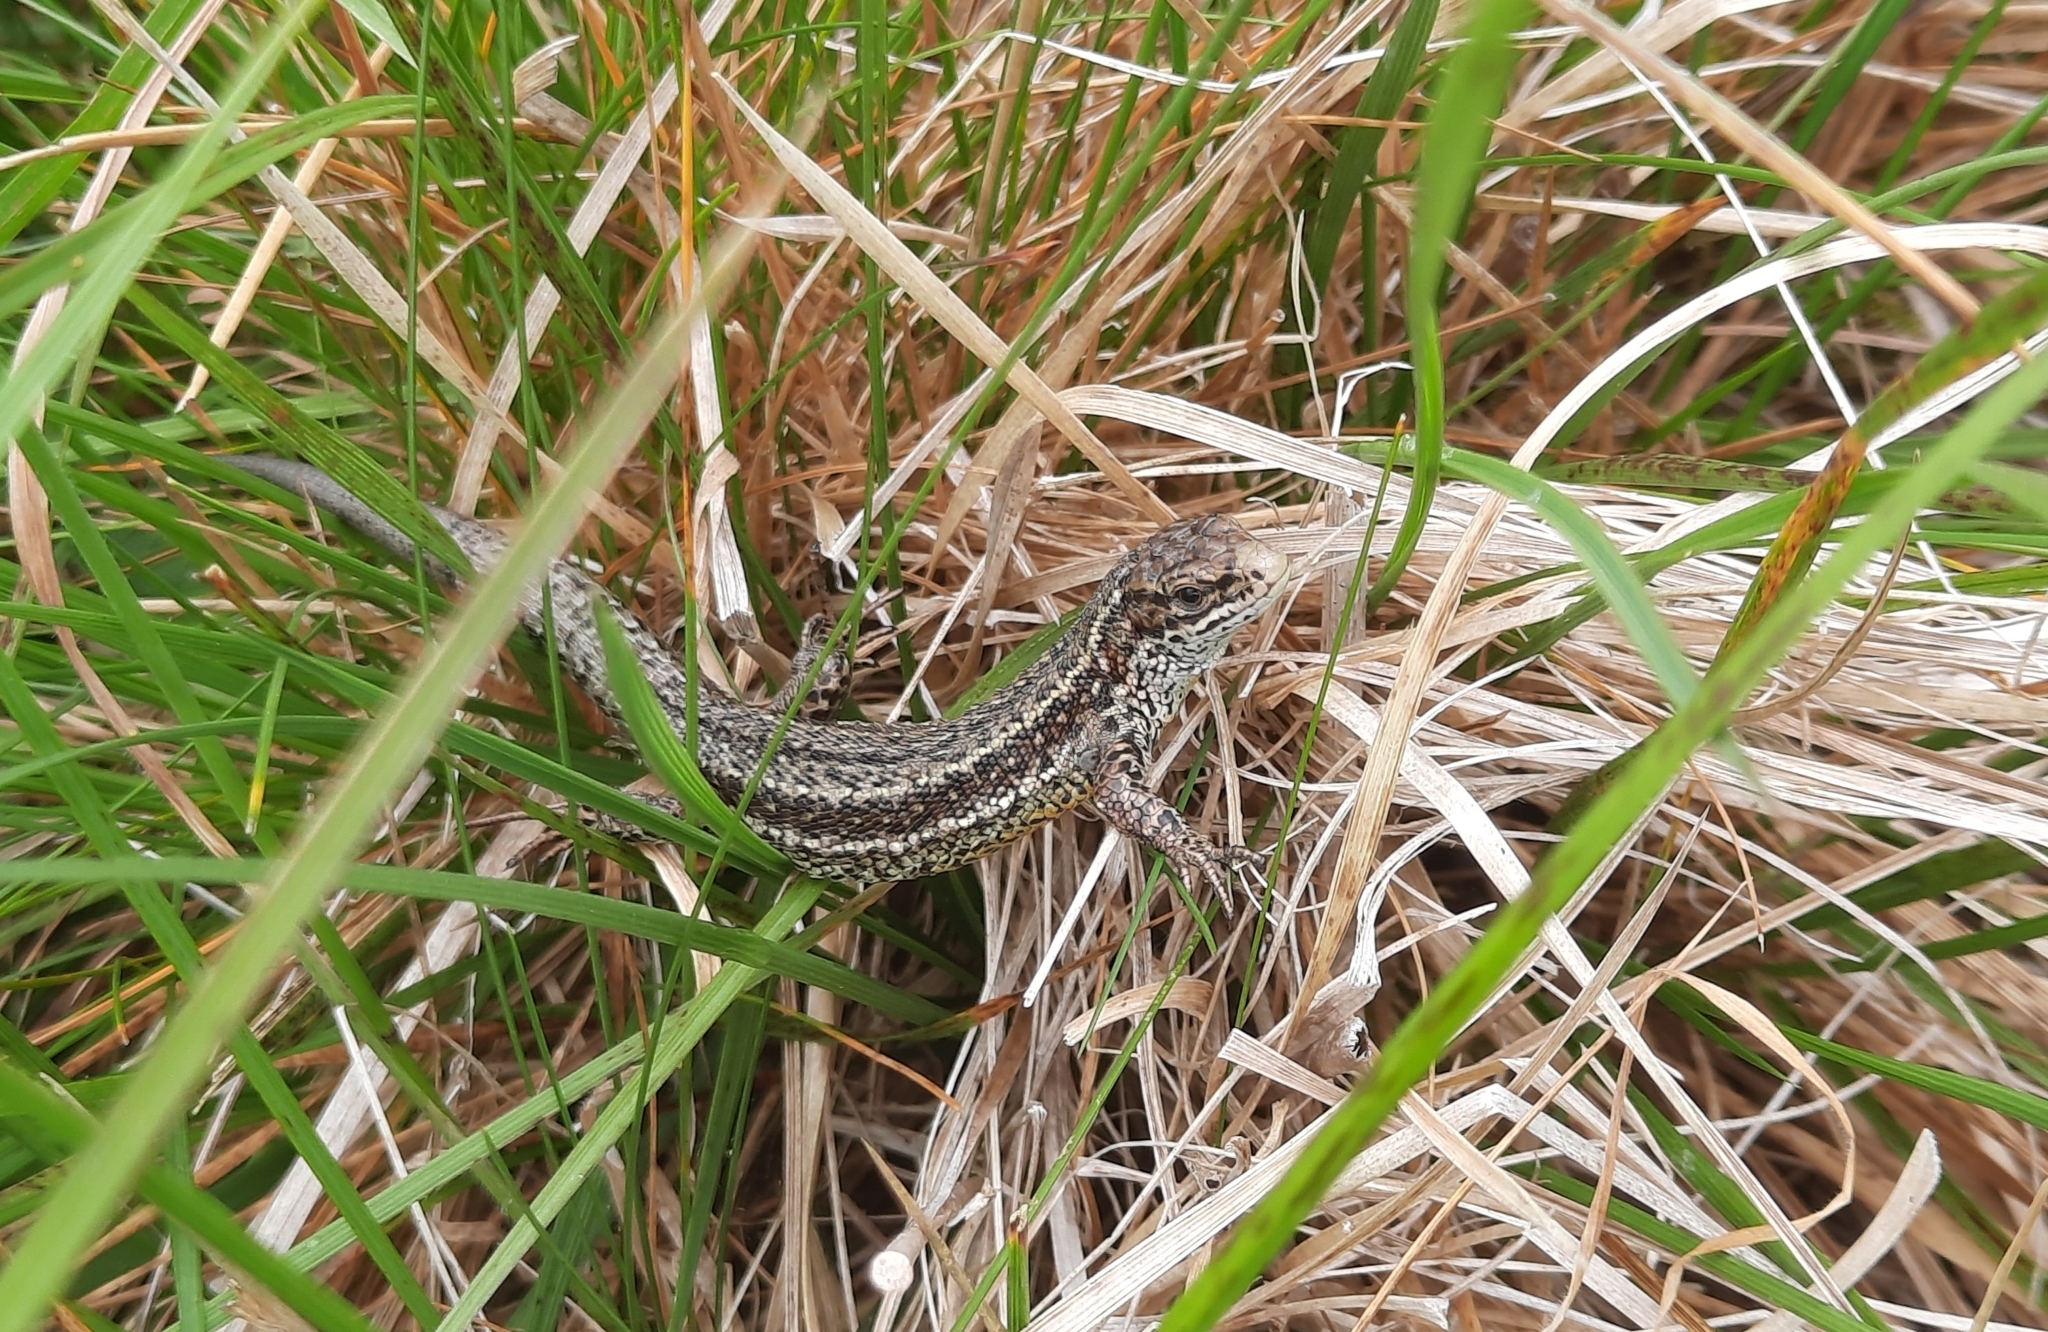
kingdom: Animalia
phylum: Chordata
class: Squamata
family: Lacertidae
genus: Zootoca
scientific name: Zootoca vivipara
